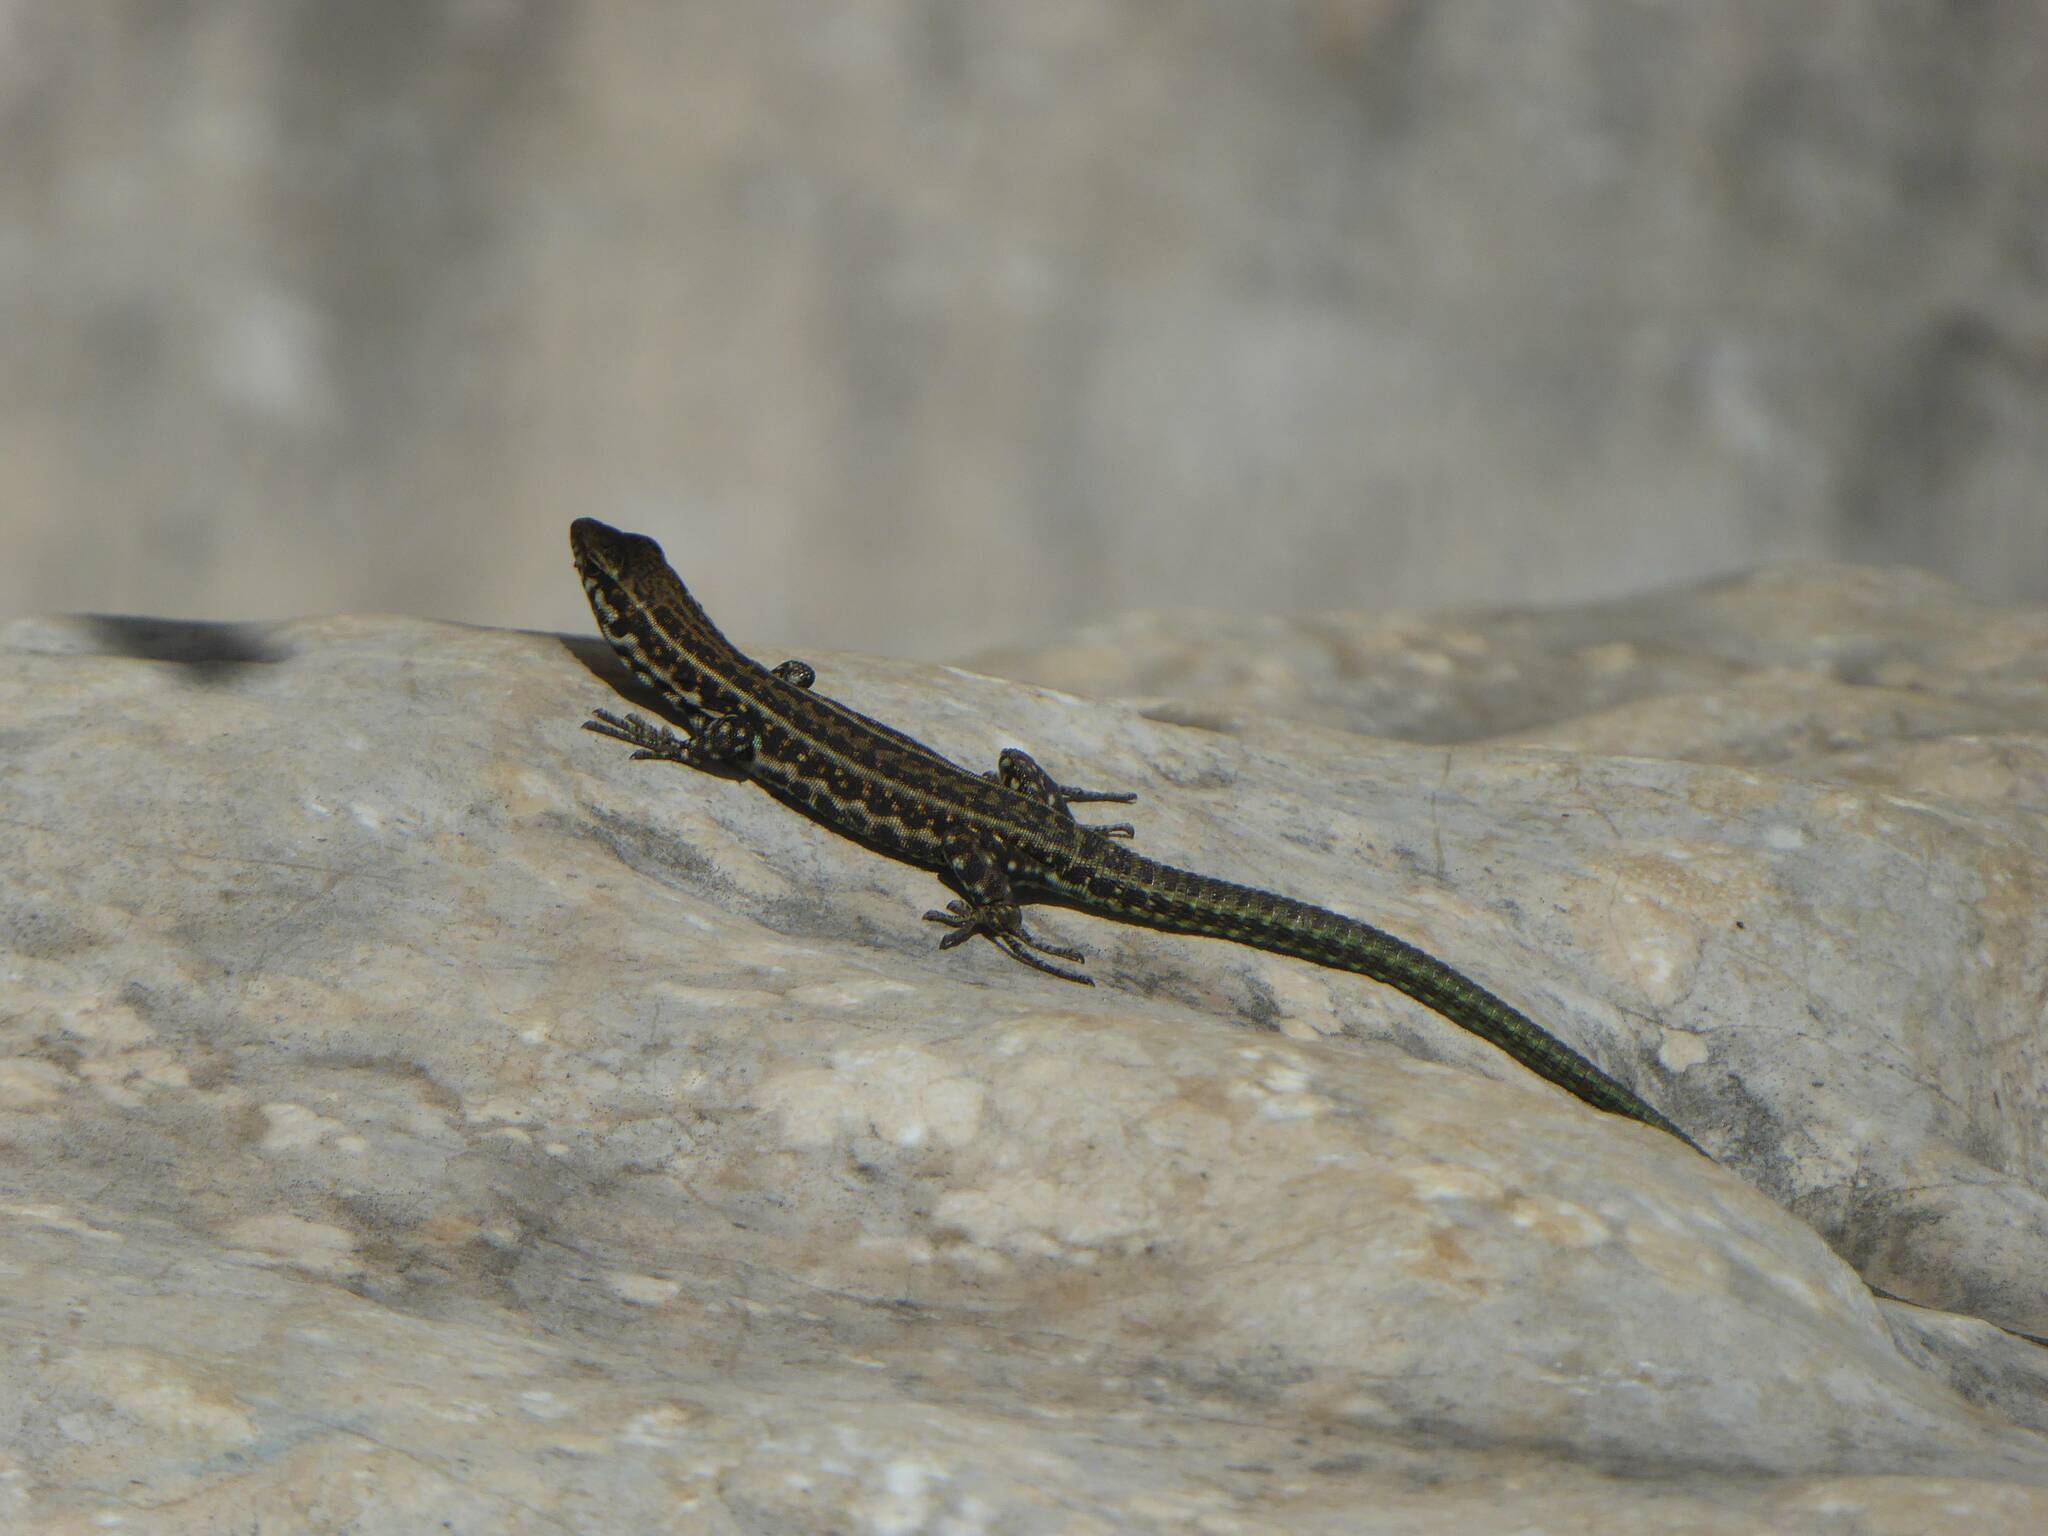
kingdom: Animalia
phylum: Chordata
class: Squamata
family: Lacertidae
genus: Podarcis
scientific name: Podarcis tiliguerta
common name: Tyrrhenian wall lizard
